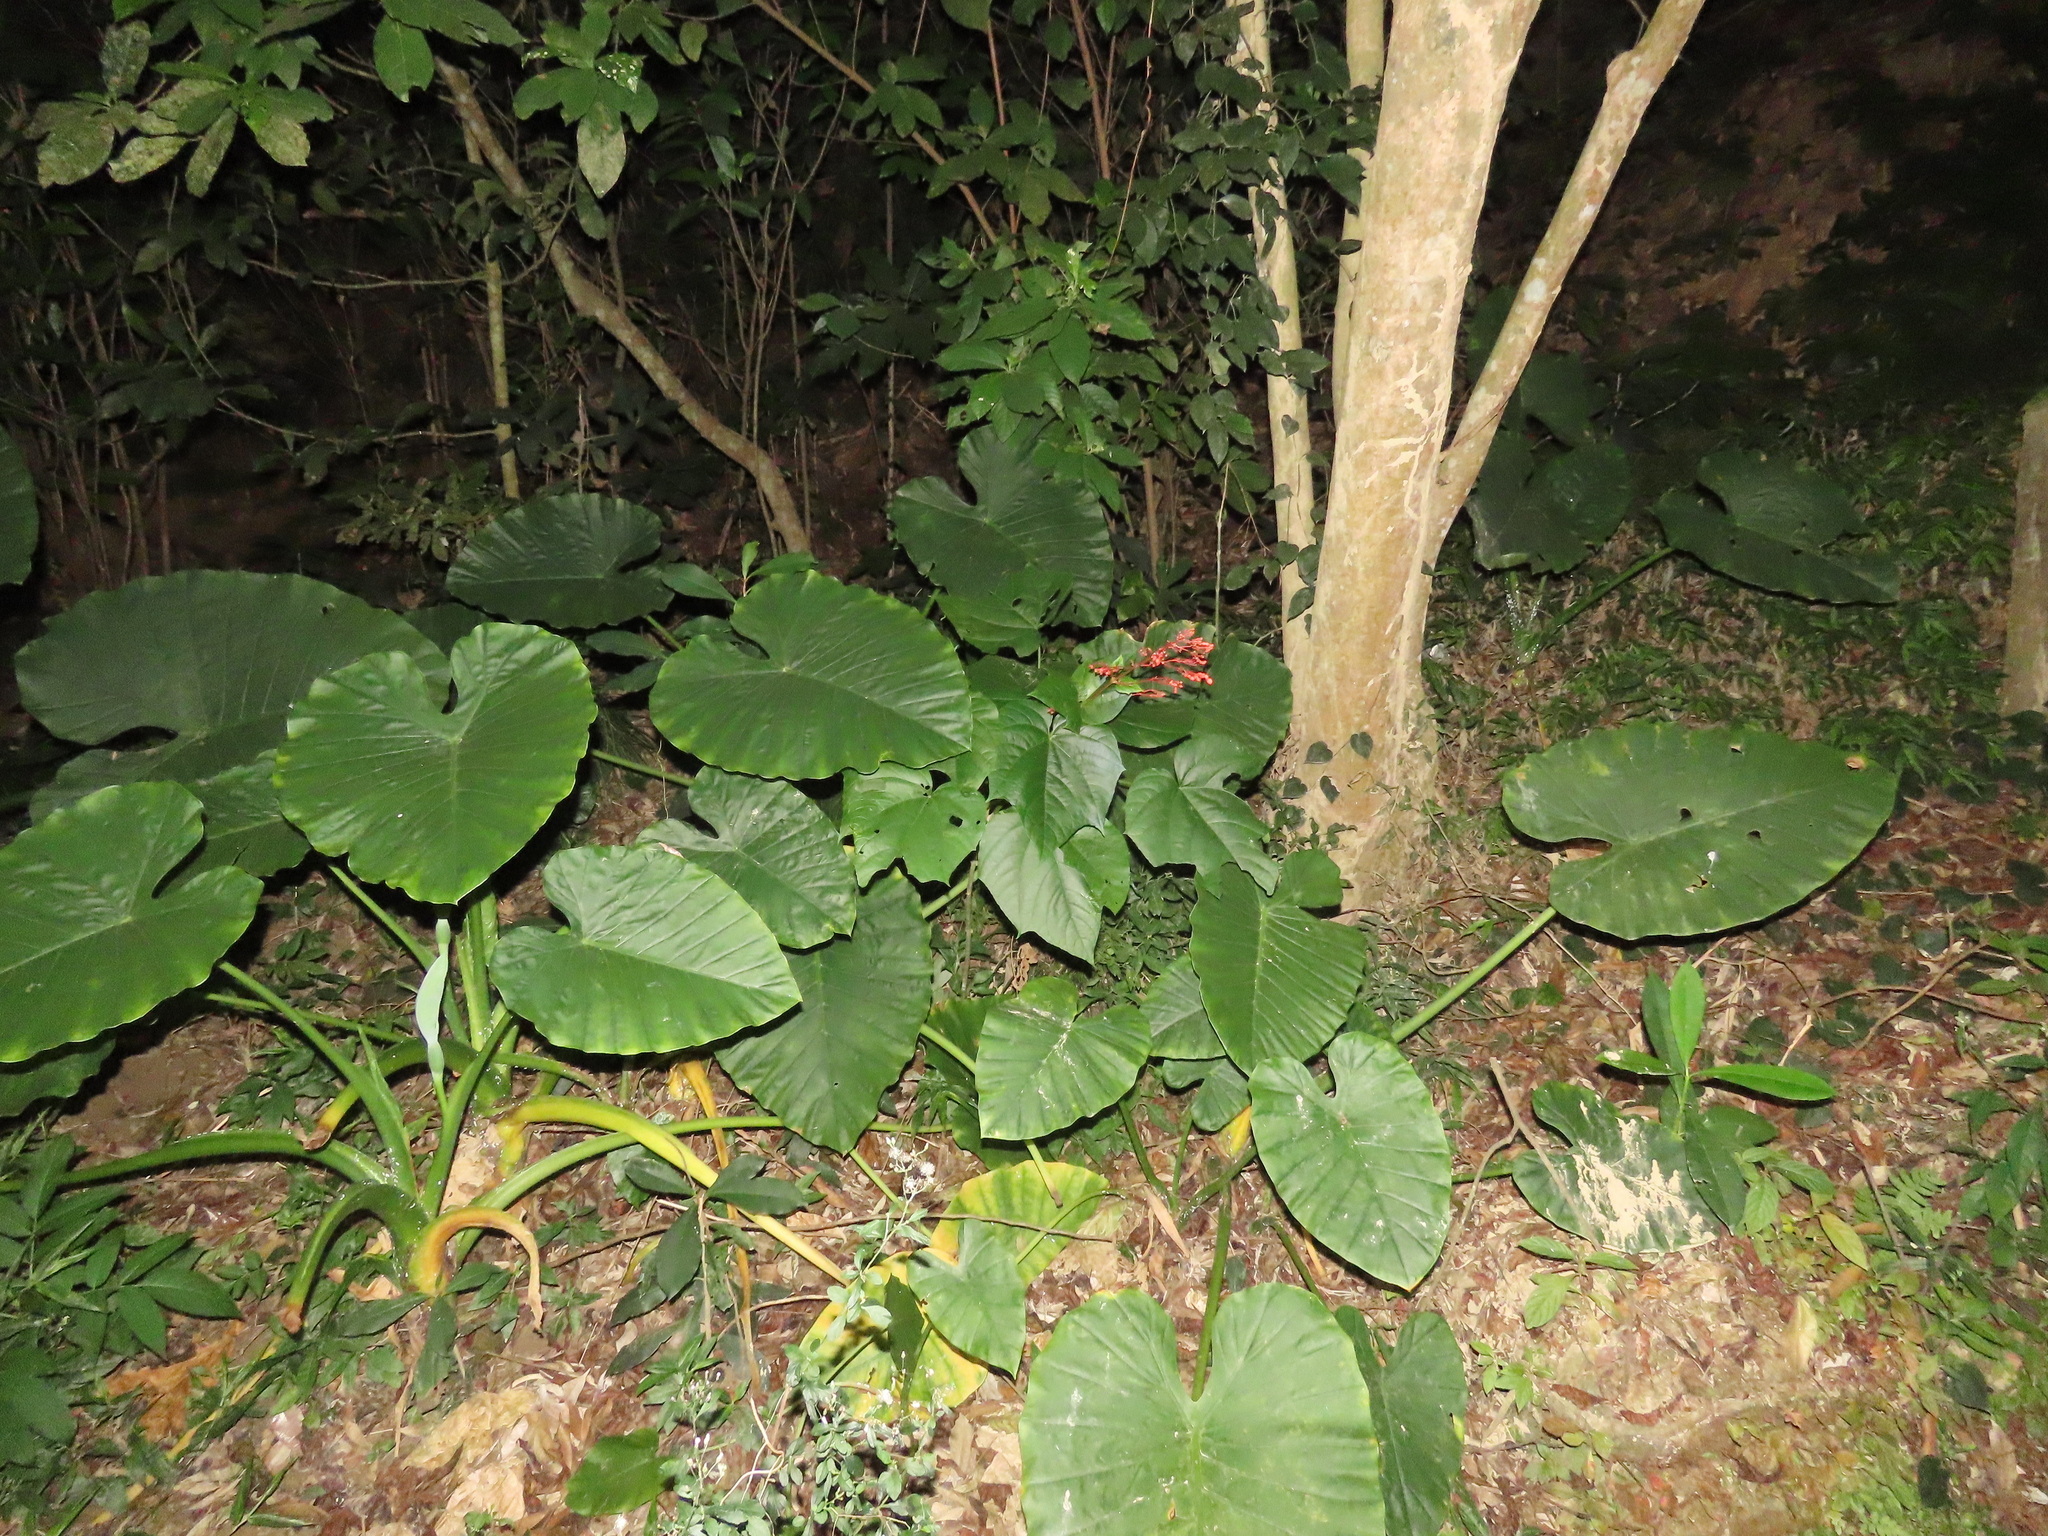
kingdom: Plantae
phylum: Tracheophyta
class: Magnoliopsida
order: Lamiales
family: Lamiaceae
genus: Clerodendrum
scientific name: Clerodendrum japonicum
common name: Japanese glorybower
